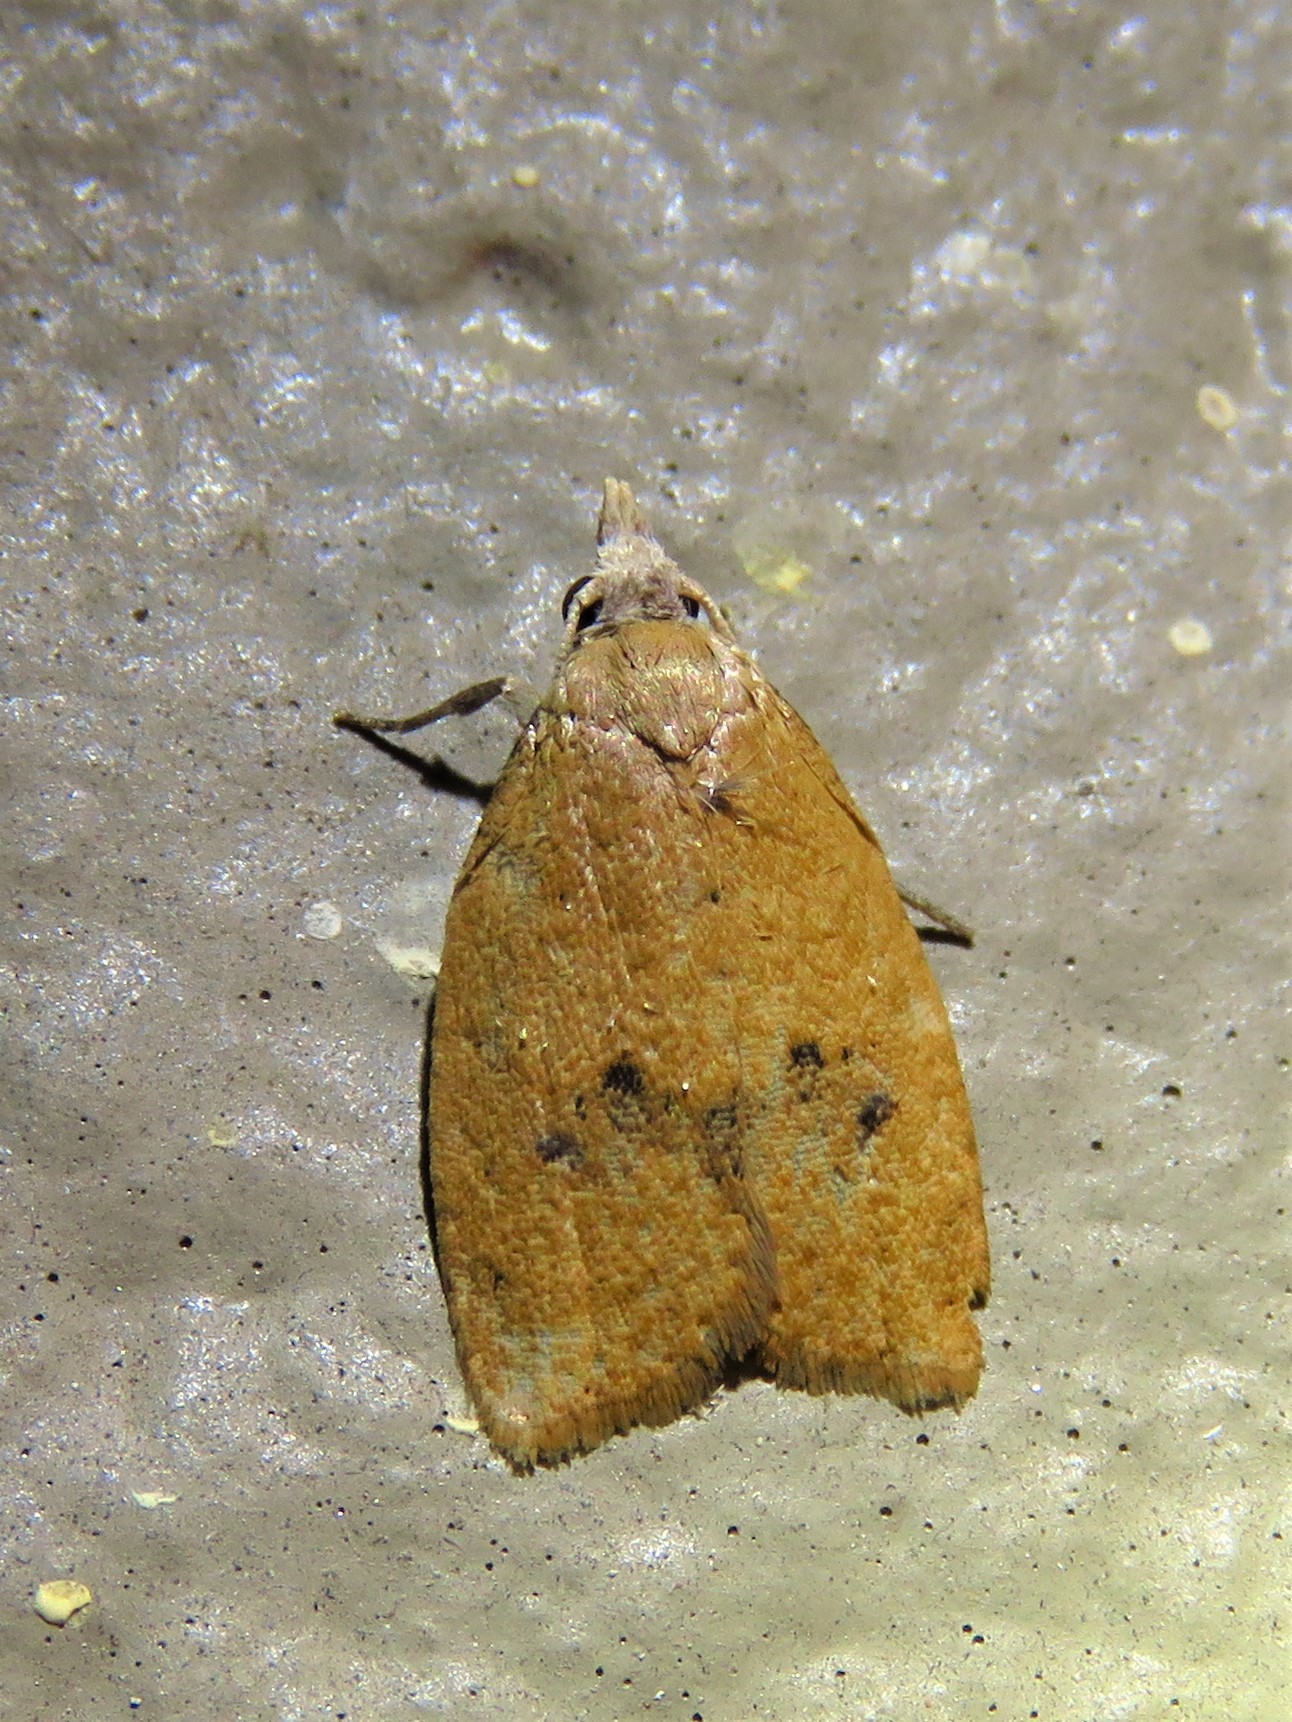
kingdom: Animalia
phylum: Arthropoda
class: Insecta
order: Lepidoptera
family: Tortricidae
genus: Sparganothoides
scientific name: Sparganothoides lentiginosana
